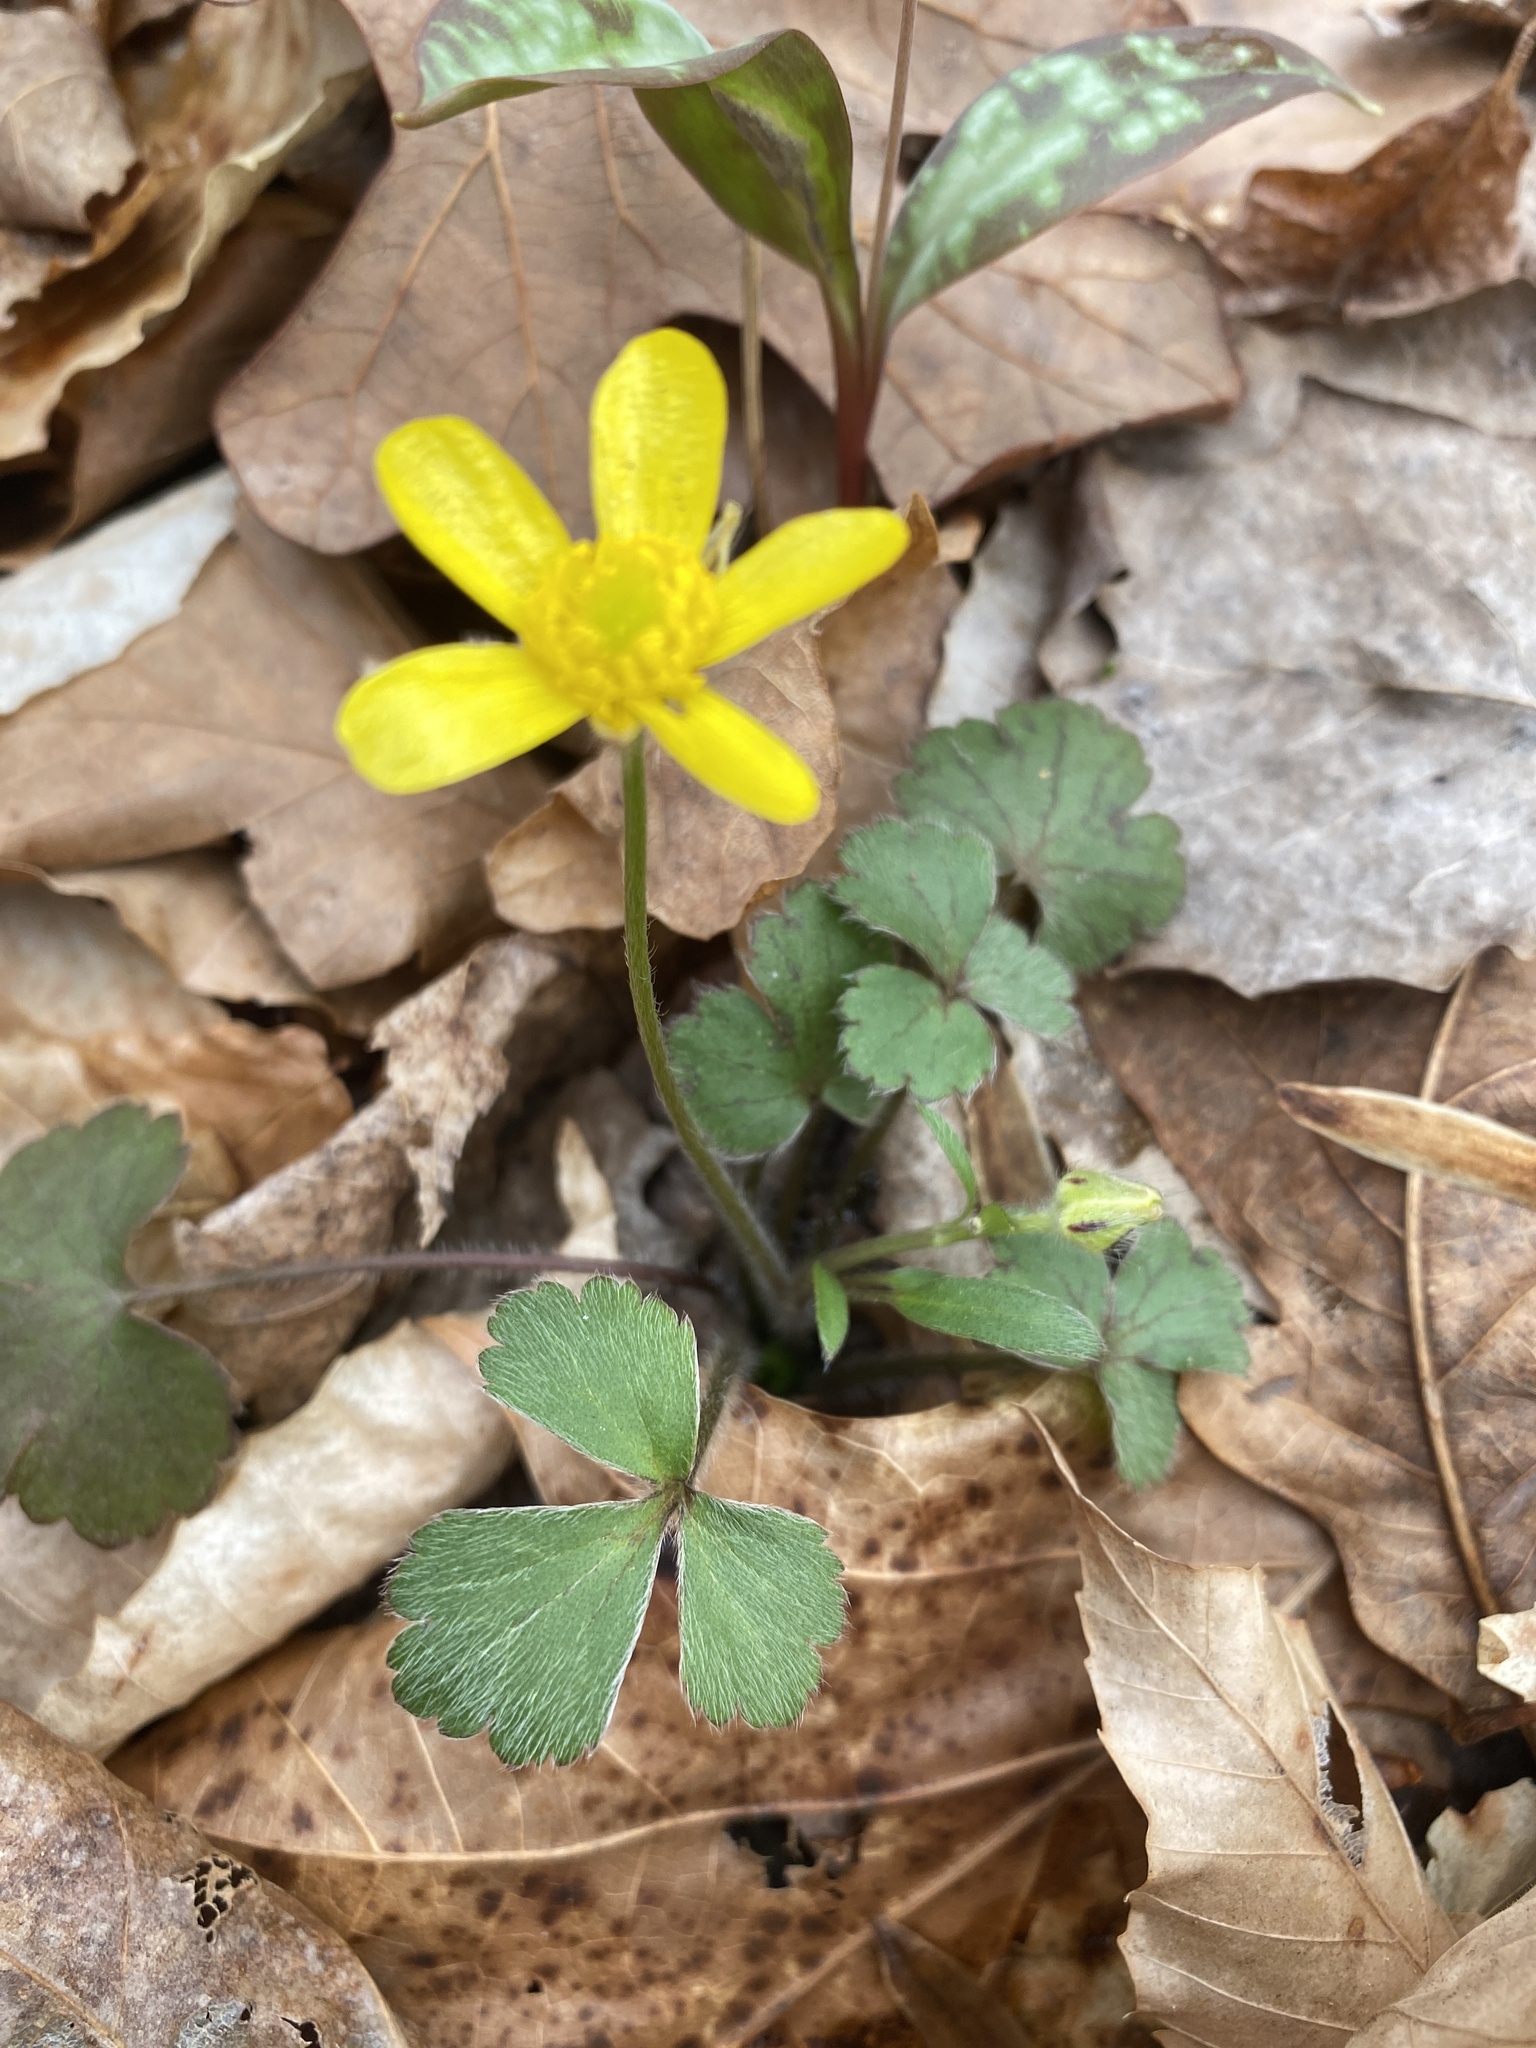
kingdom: Plantae
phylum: Tracheophyta
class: Magnoliopsida
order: Ranunculales
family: Ranunculaceae
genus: Ranunculus
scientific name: Ranunculus hispidus
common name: Bristly buttercup
